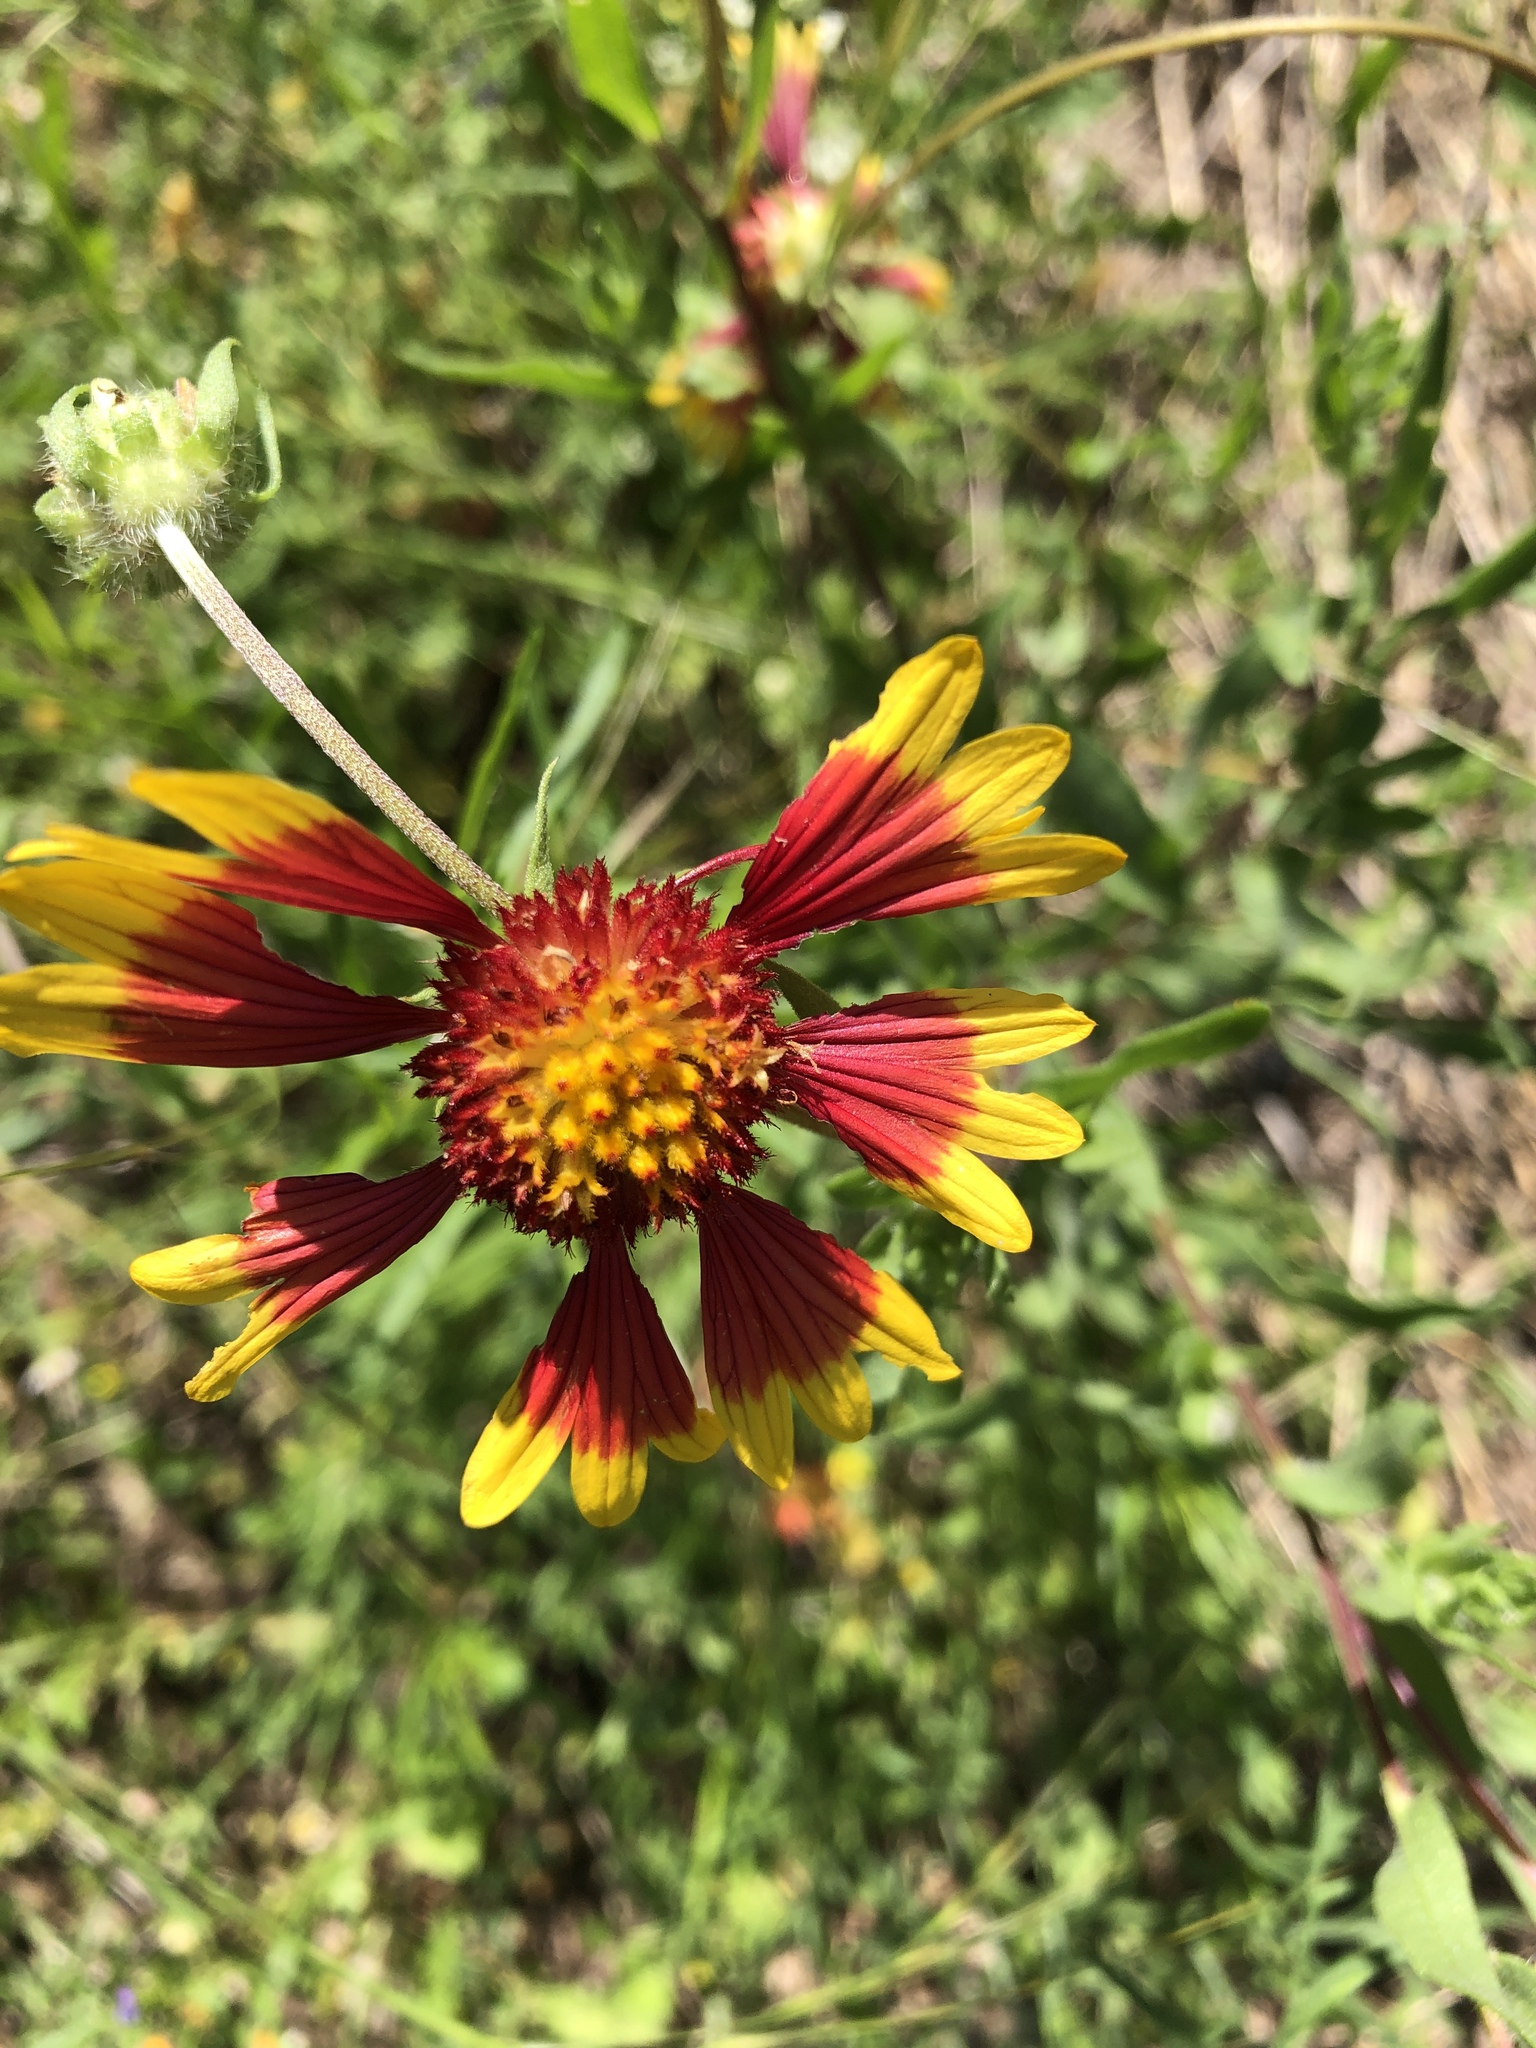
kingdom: Plantae
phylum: Tracheophyta
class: Magnoliopsida
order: Asterales
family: Asteraceae
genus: Gaillardia
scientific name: Gaillardia pulchella
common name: Firewheel
